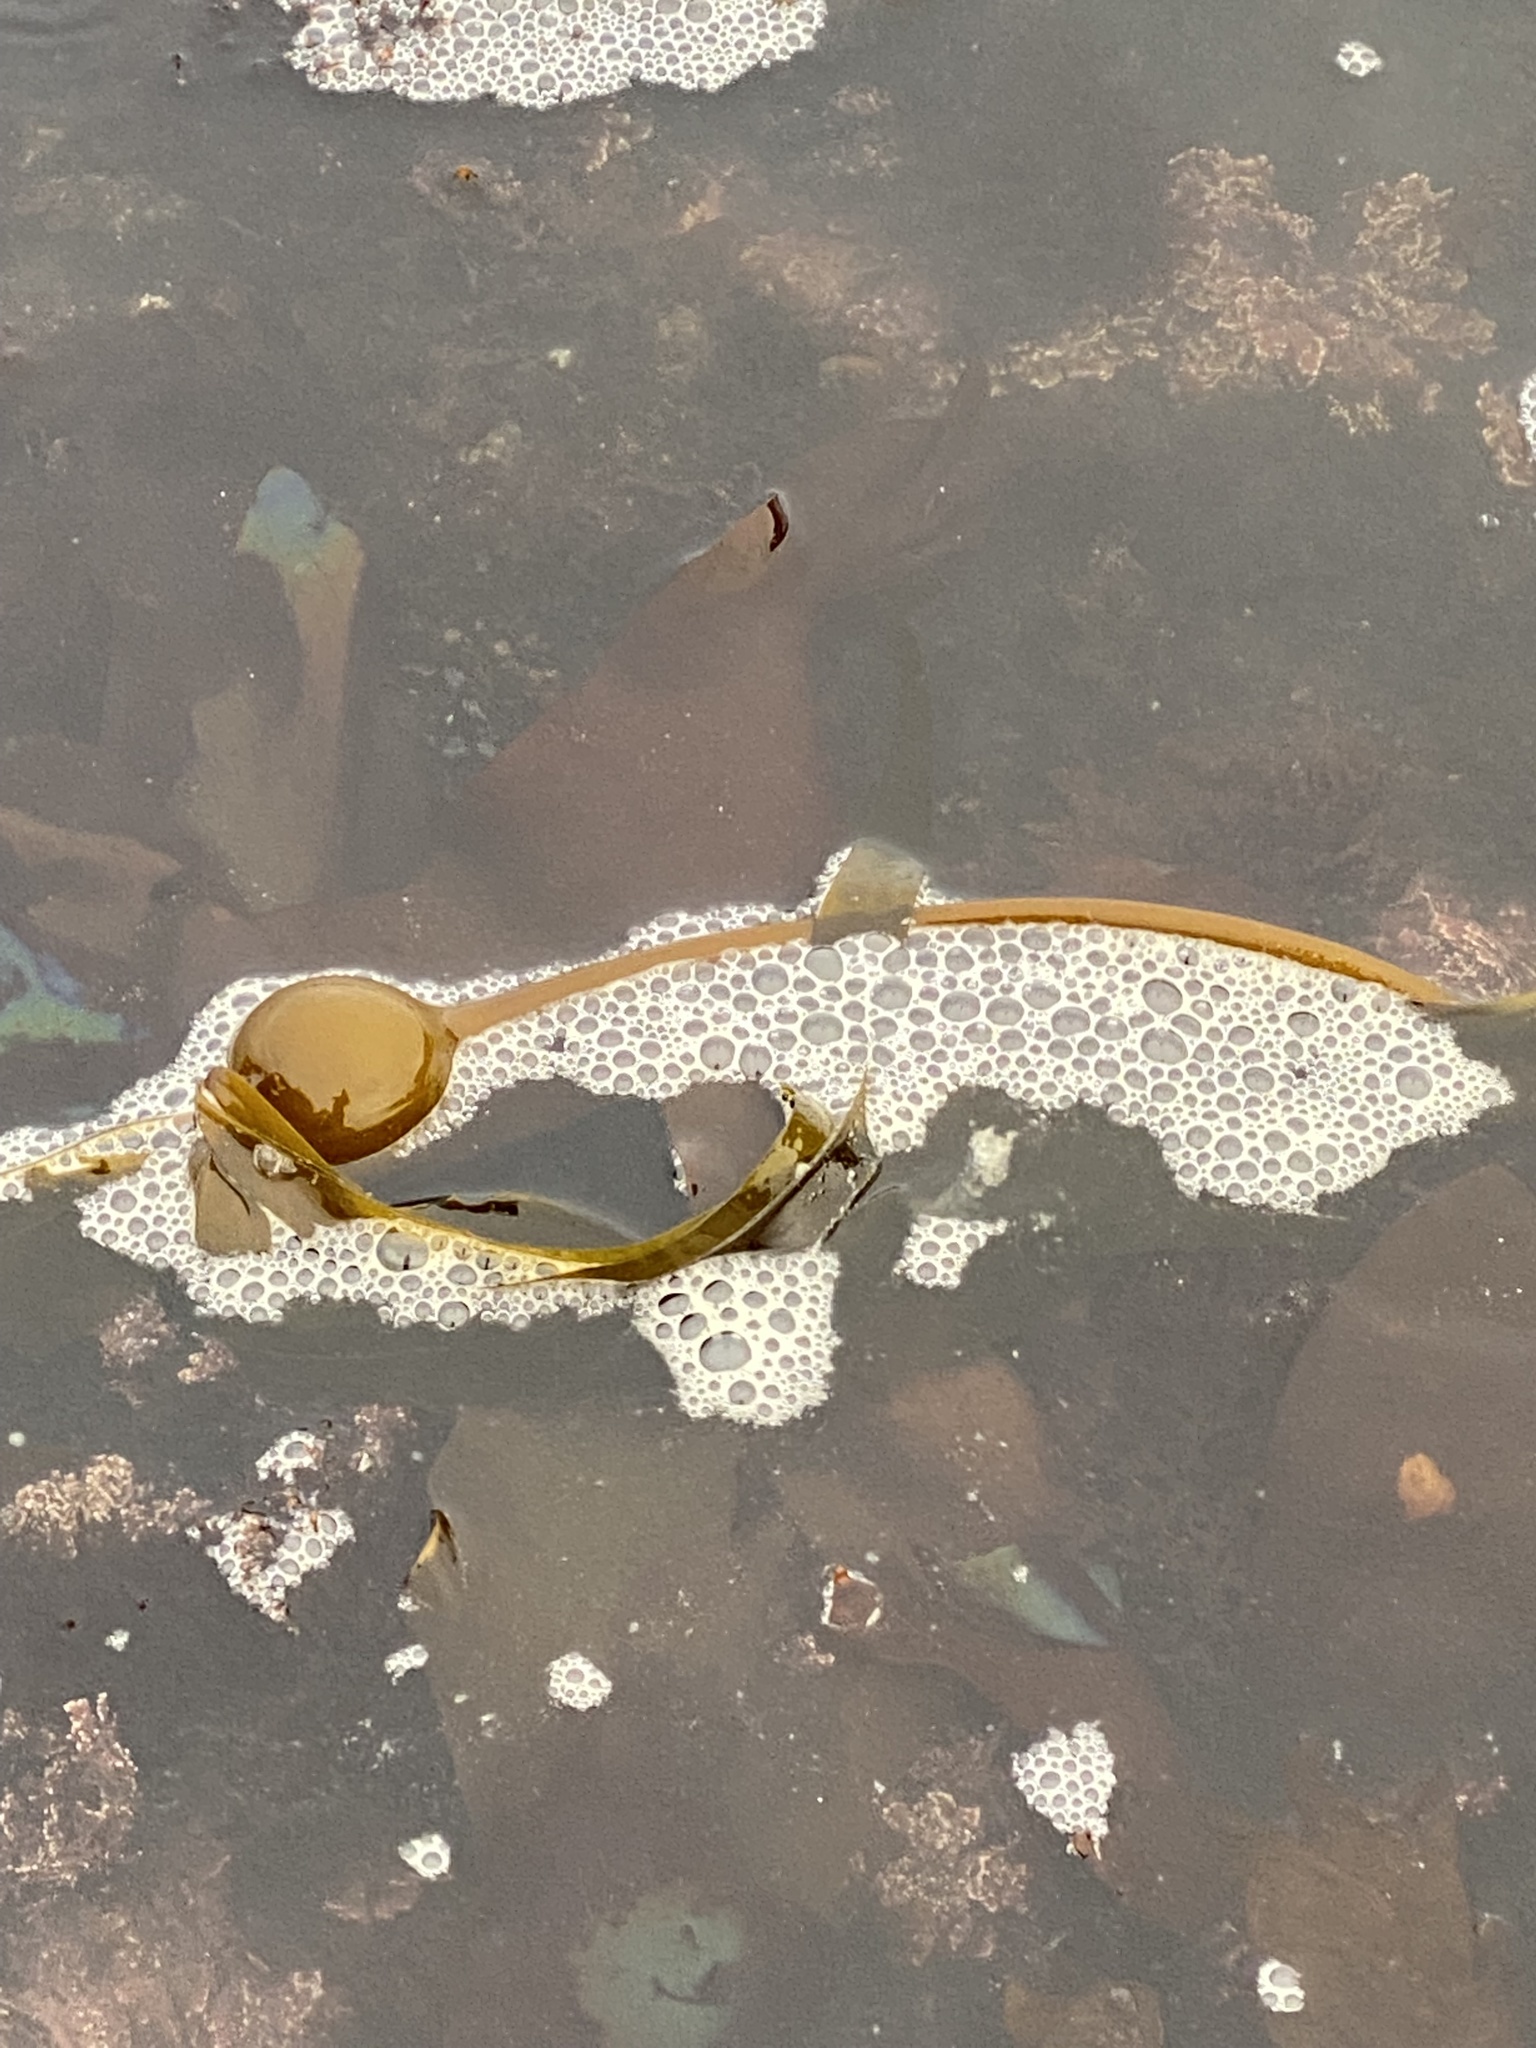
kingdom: Chromista
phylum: Ochrophyta
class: Phaeophyceae
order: Laminariales
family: Laminariaceae
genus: Nereocystis
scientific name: Nereocystis luetkeana
